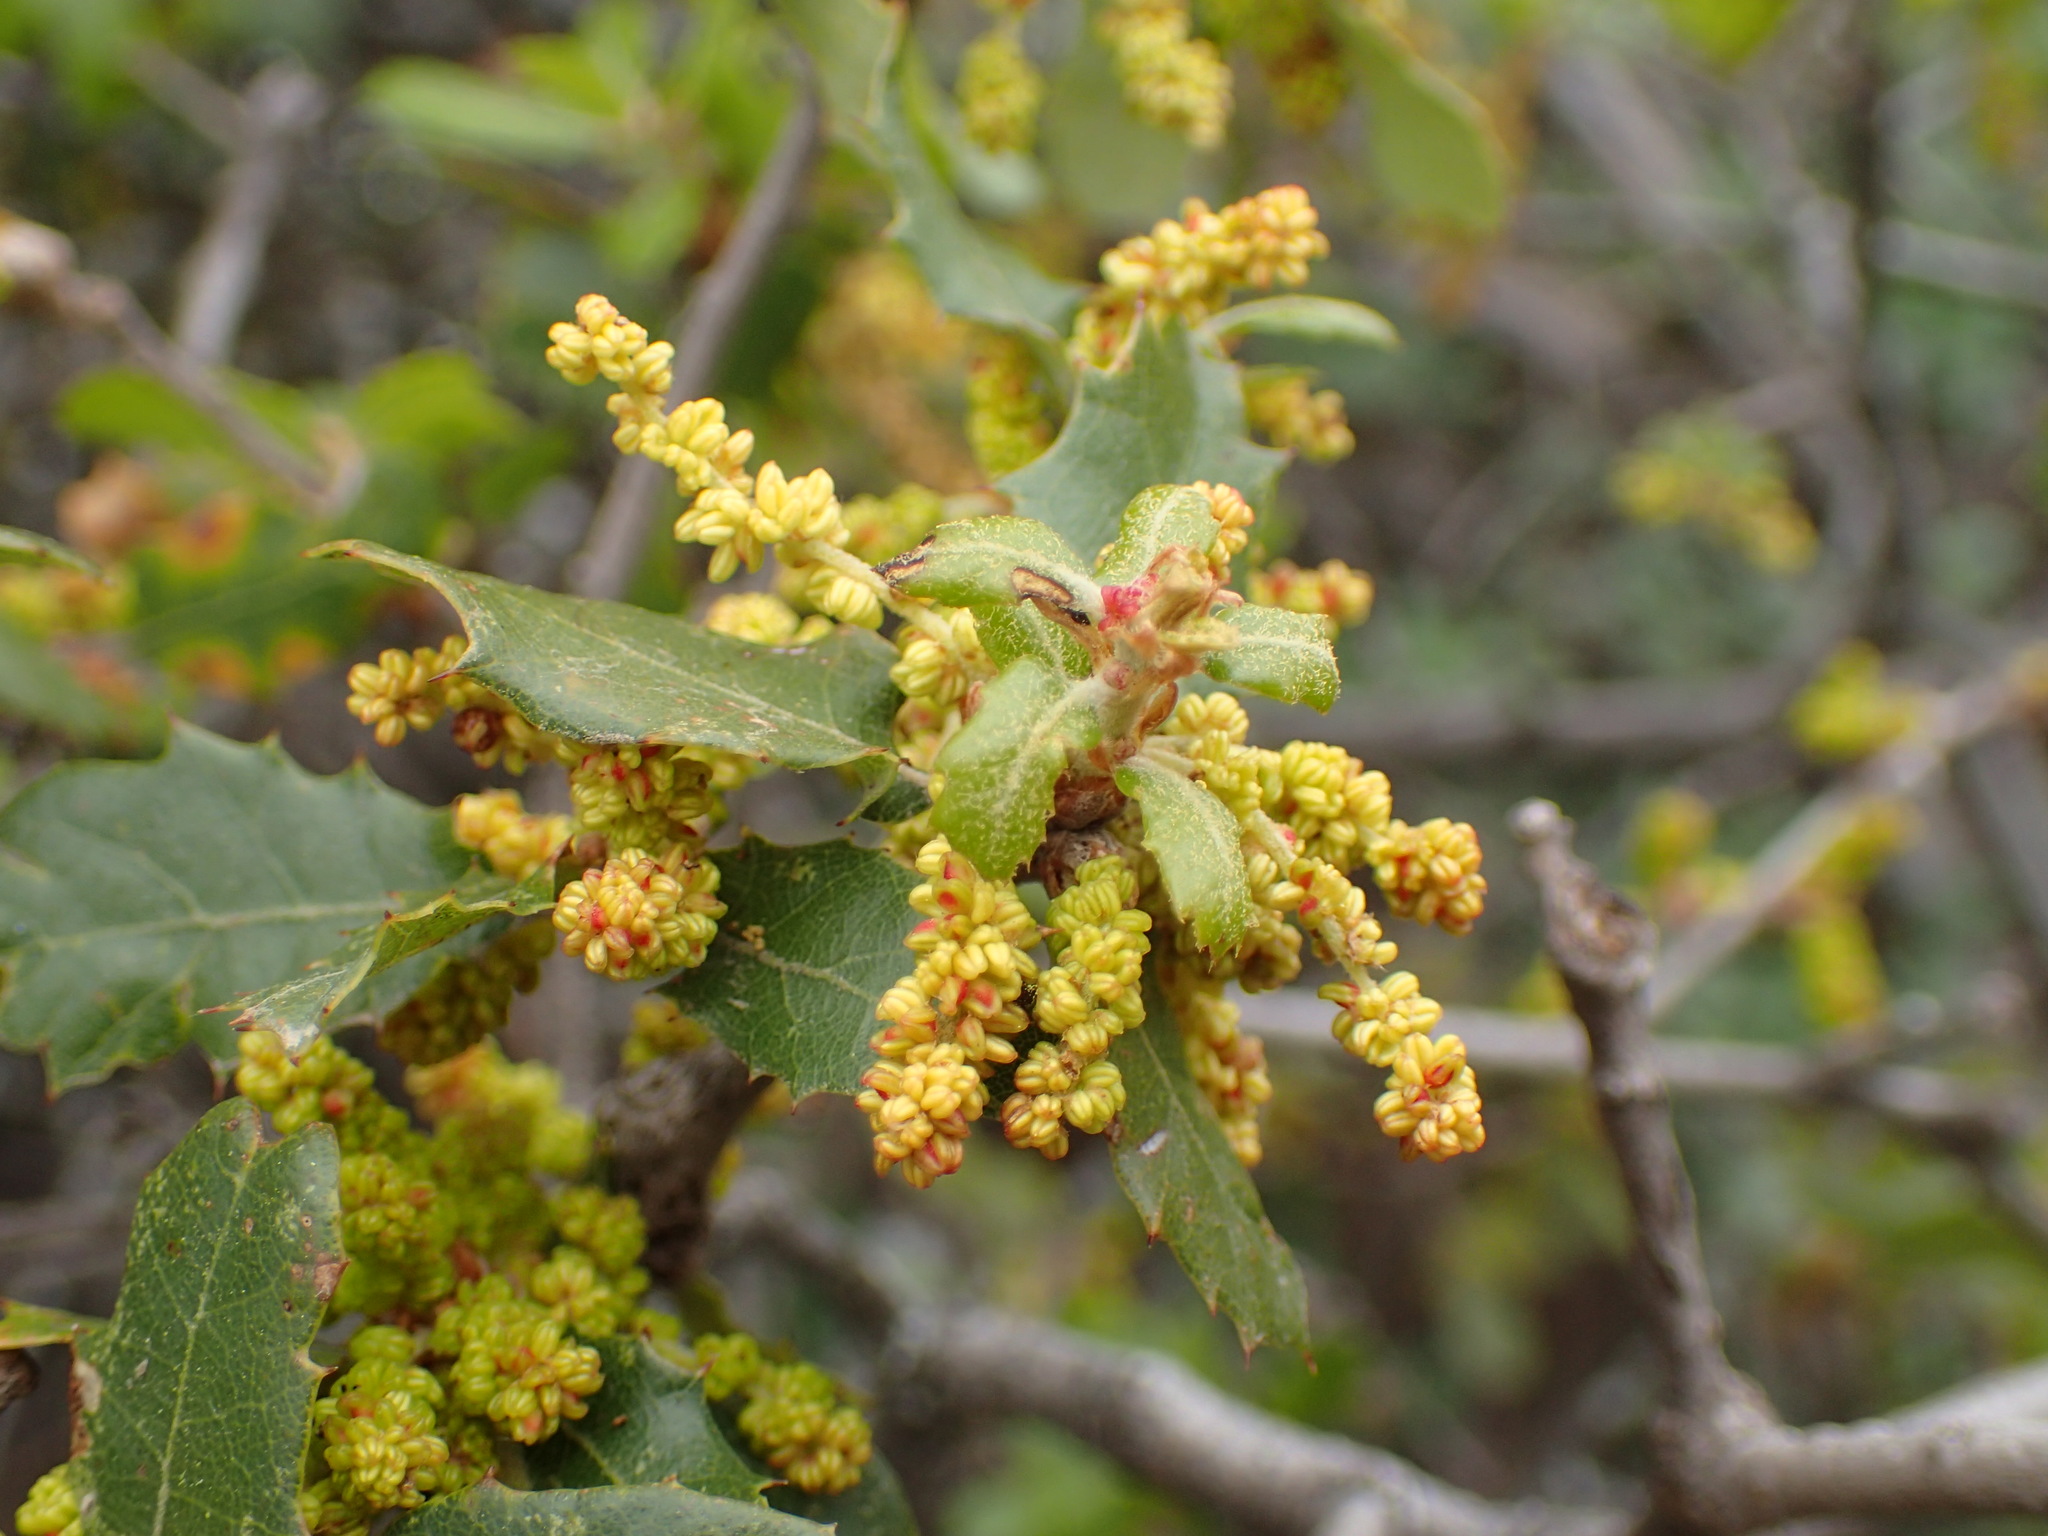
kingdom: Plantae
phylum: Tracheophyta
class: Magnoliopsida
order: Fagales
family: Fagaceae
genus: Quercus
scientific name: Quercus berberidifolia
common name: California scrub oak
